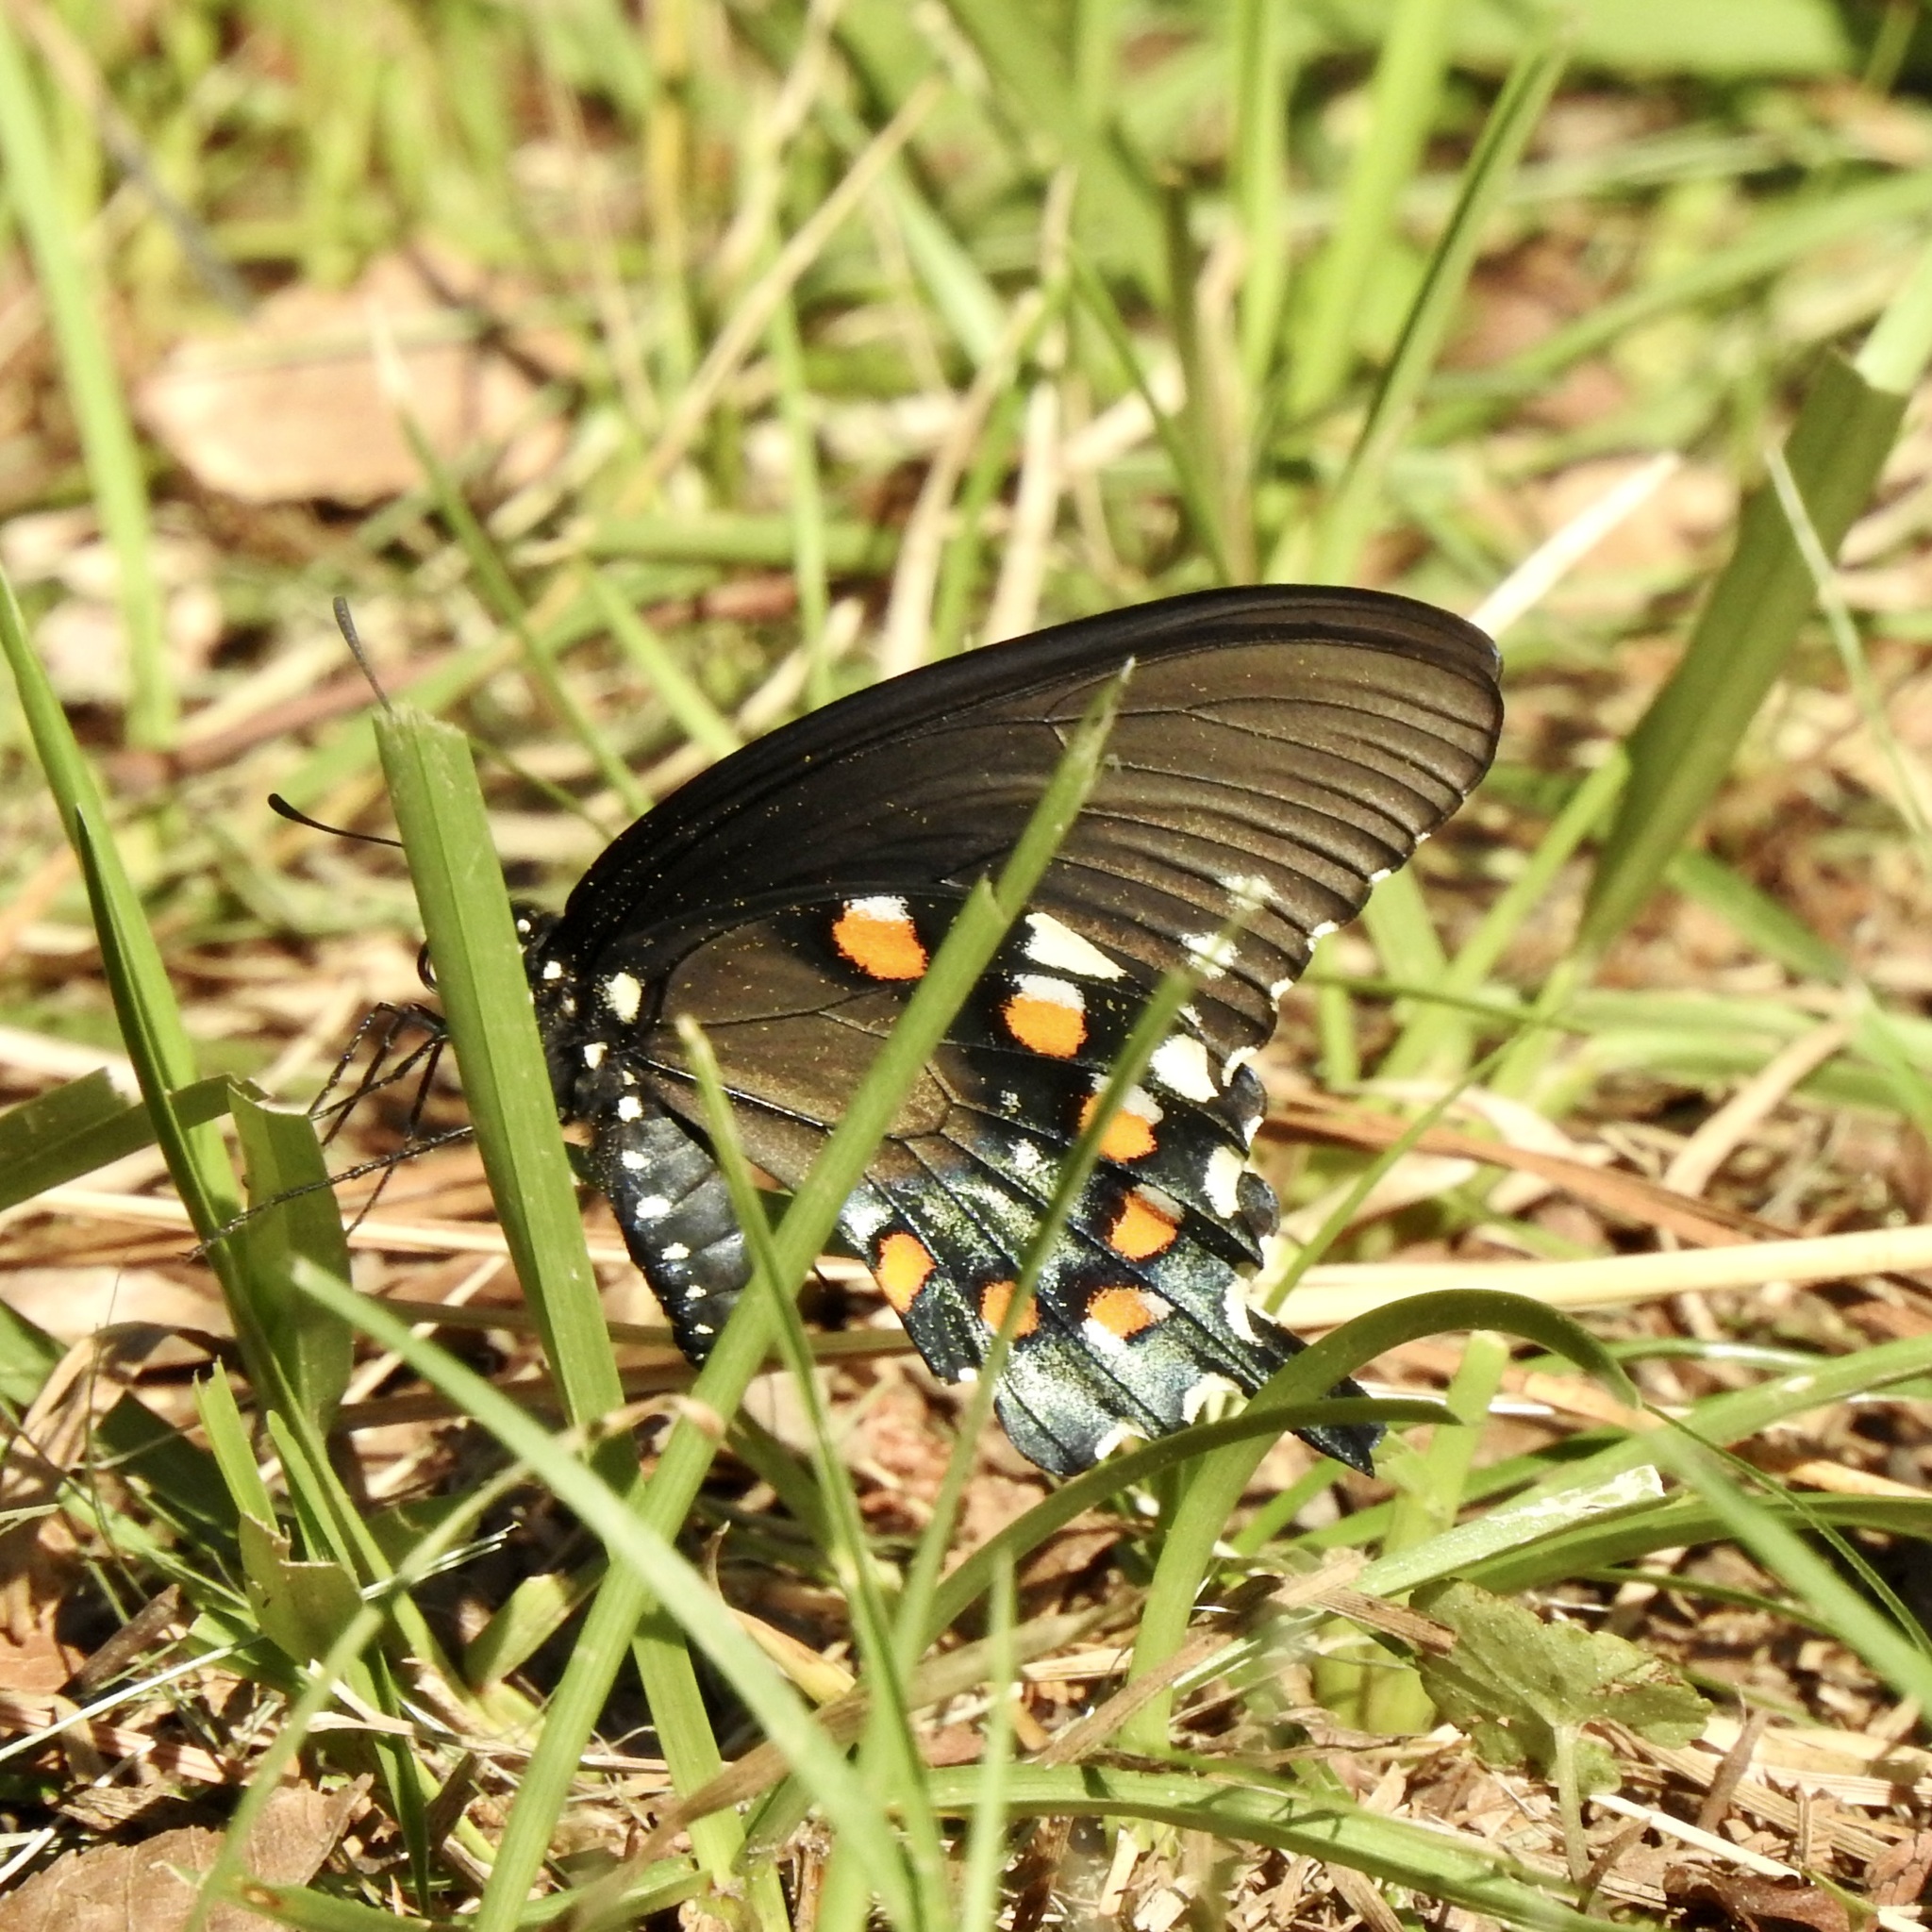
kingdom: Animalia
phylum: Arthropoda
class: Insecta
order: Lepidoptera
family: Papilionidae
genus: Battus
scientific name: Battus philenor
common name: Pipevine swallowtail
